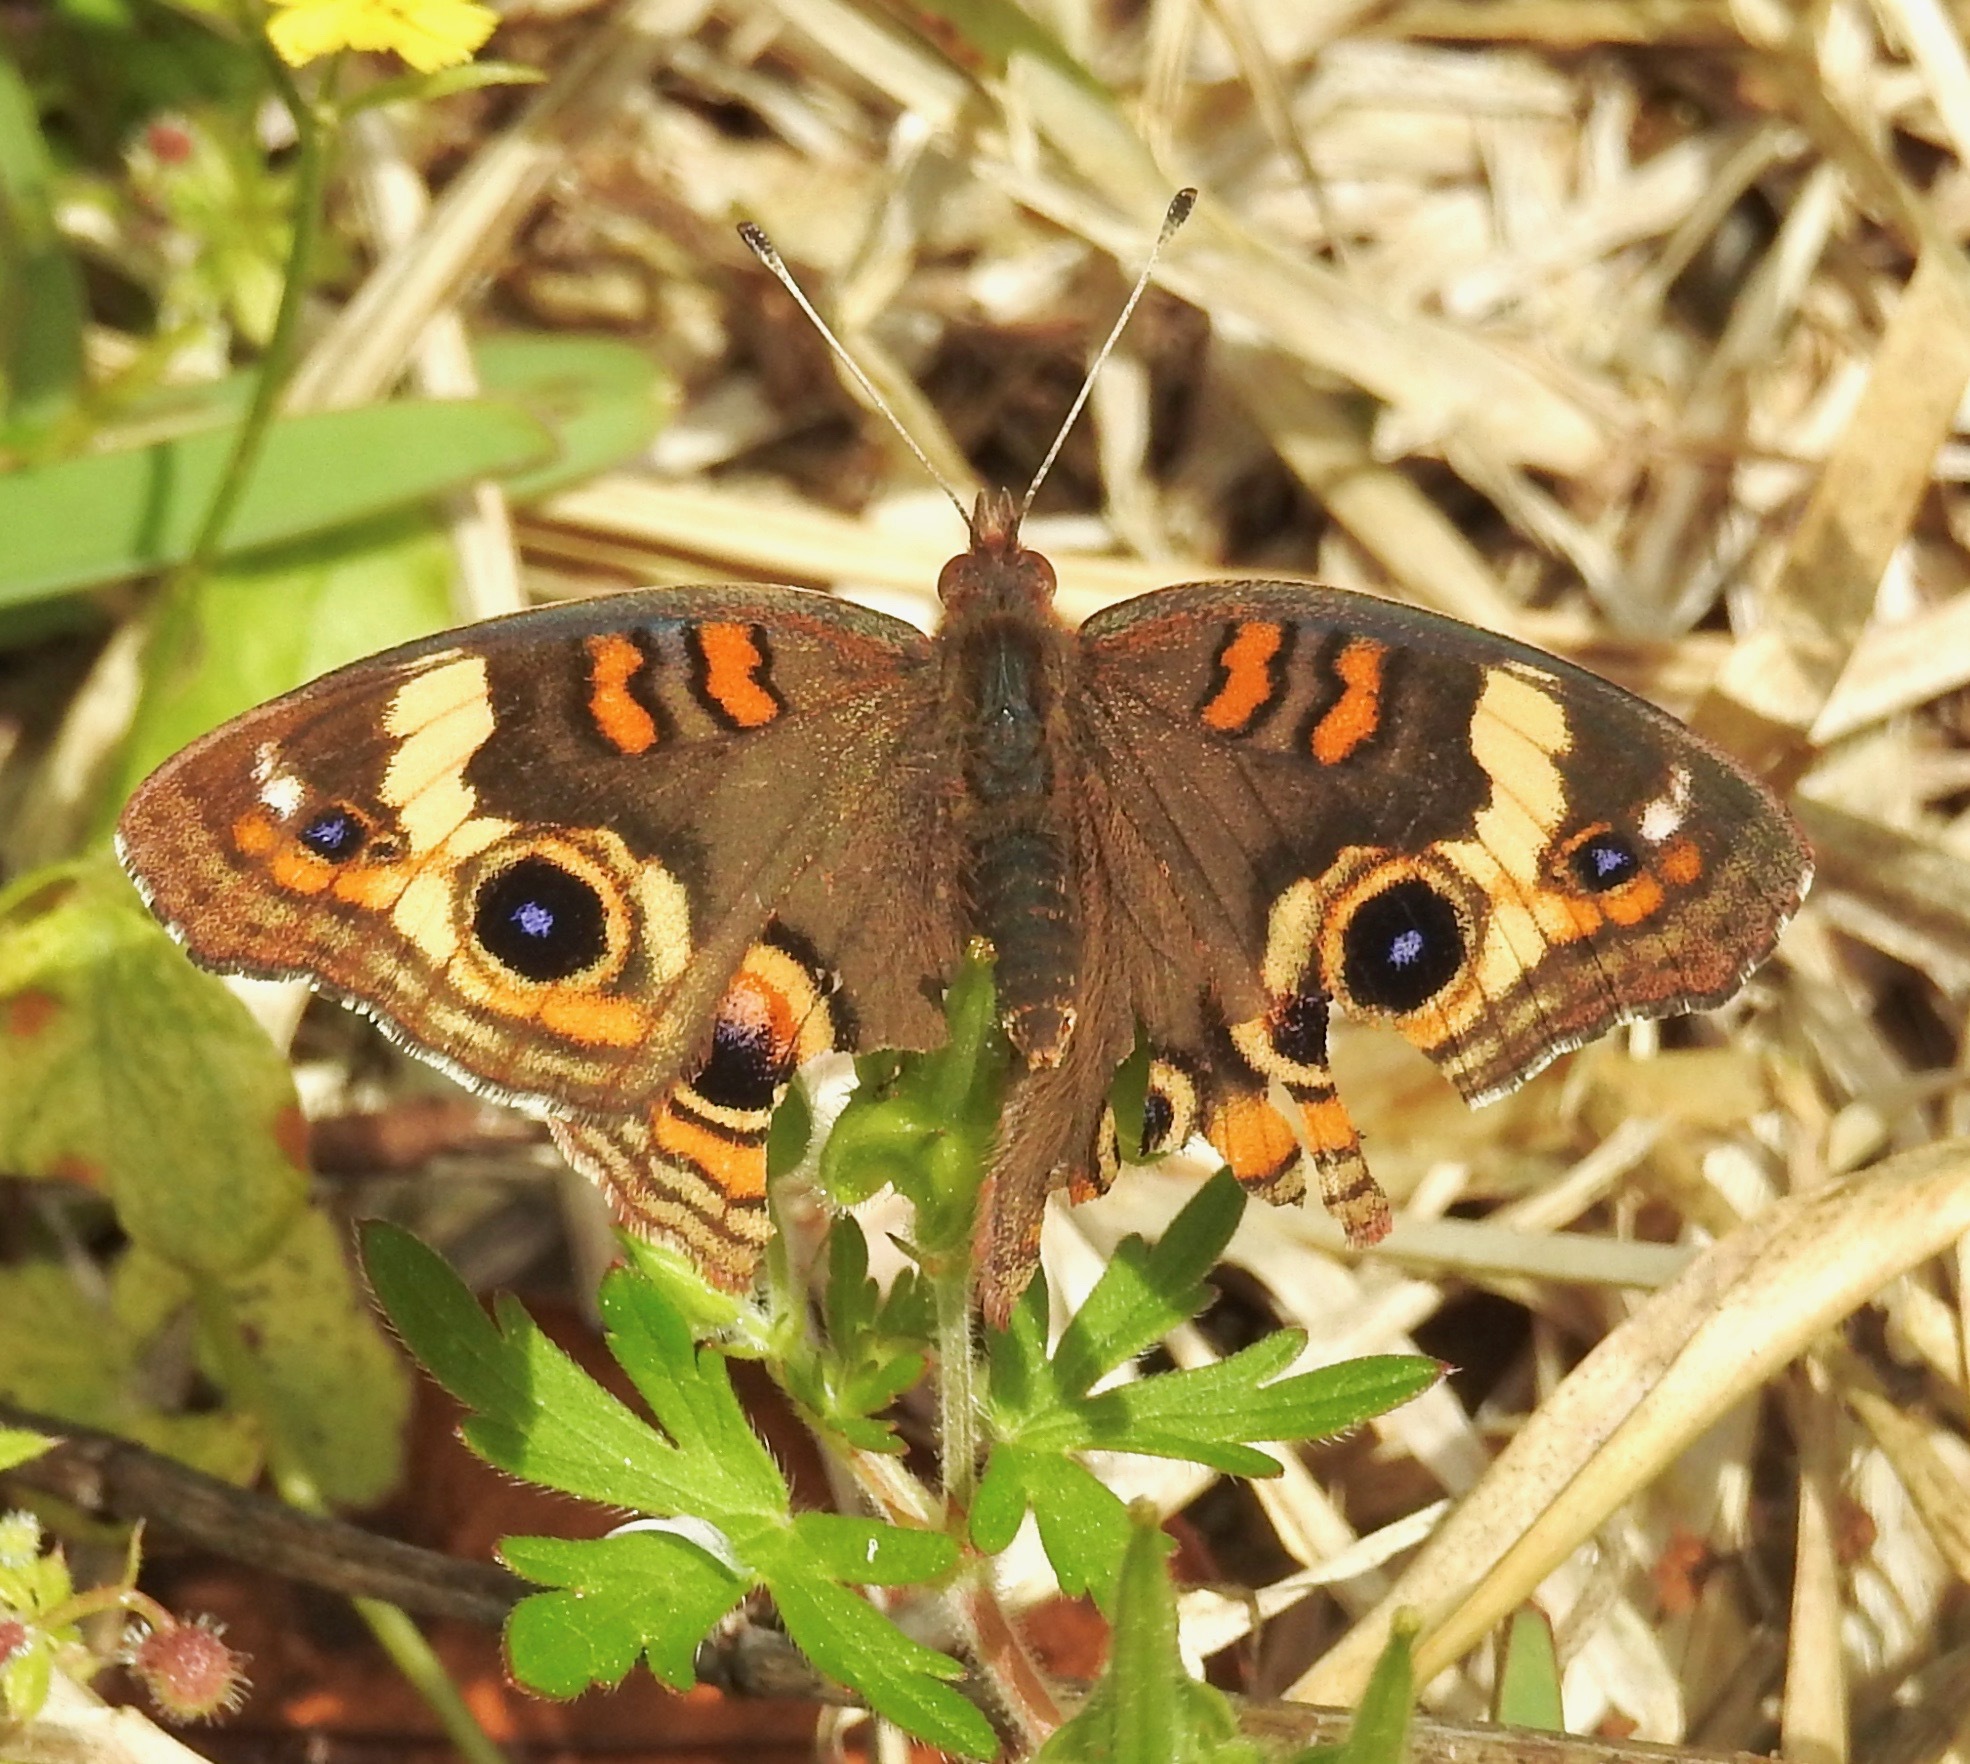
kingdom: Animalia
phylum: Arthropoda
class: Insecta
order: Lepidoptera
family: Nymphalidae
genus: Junonia
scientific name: Junonia coenia
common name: Common buckeye
